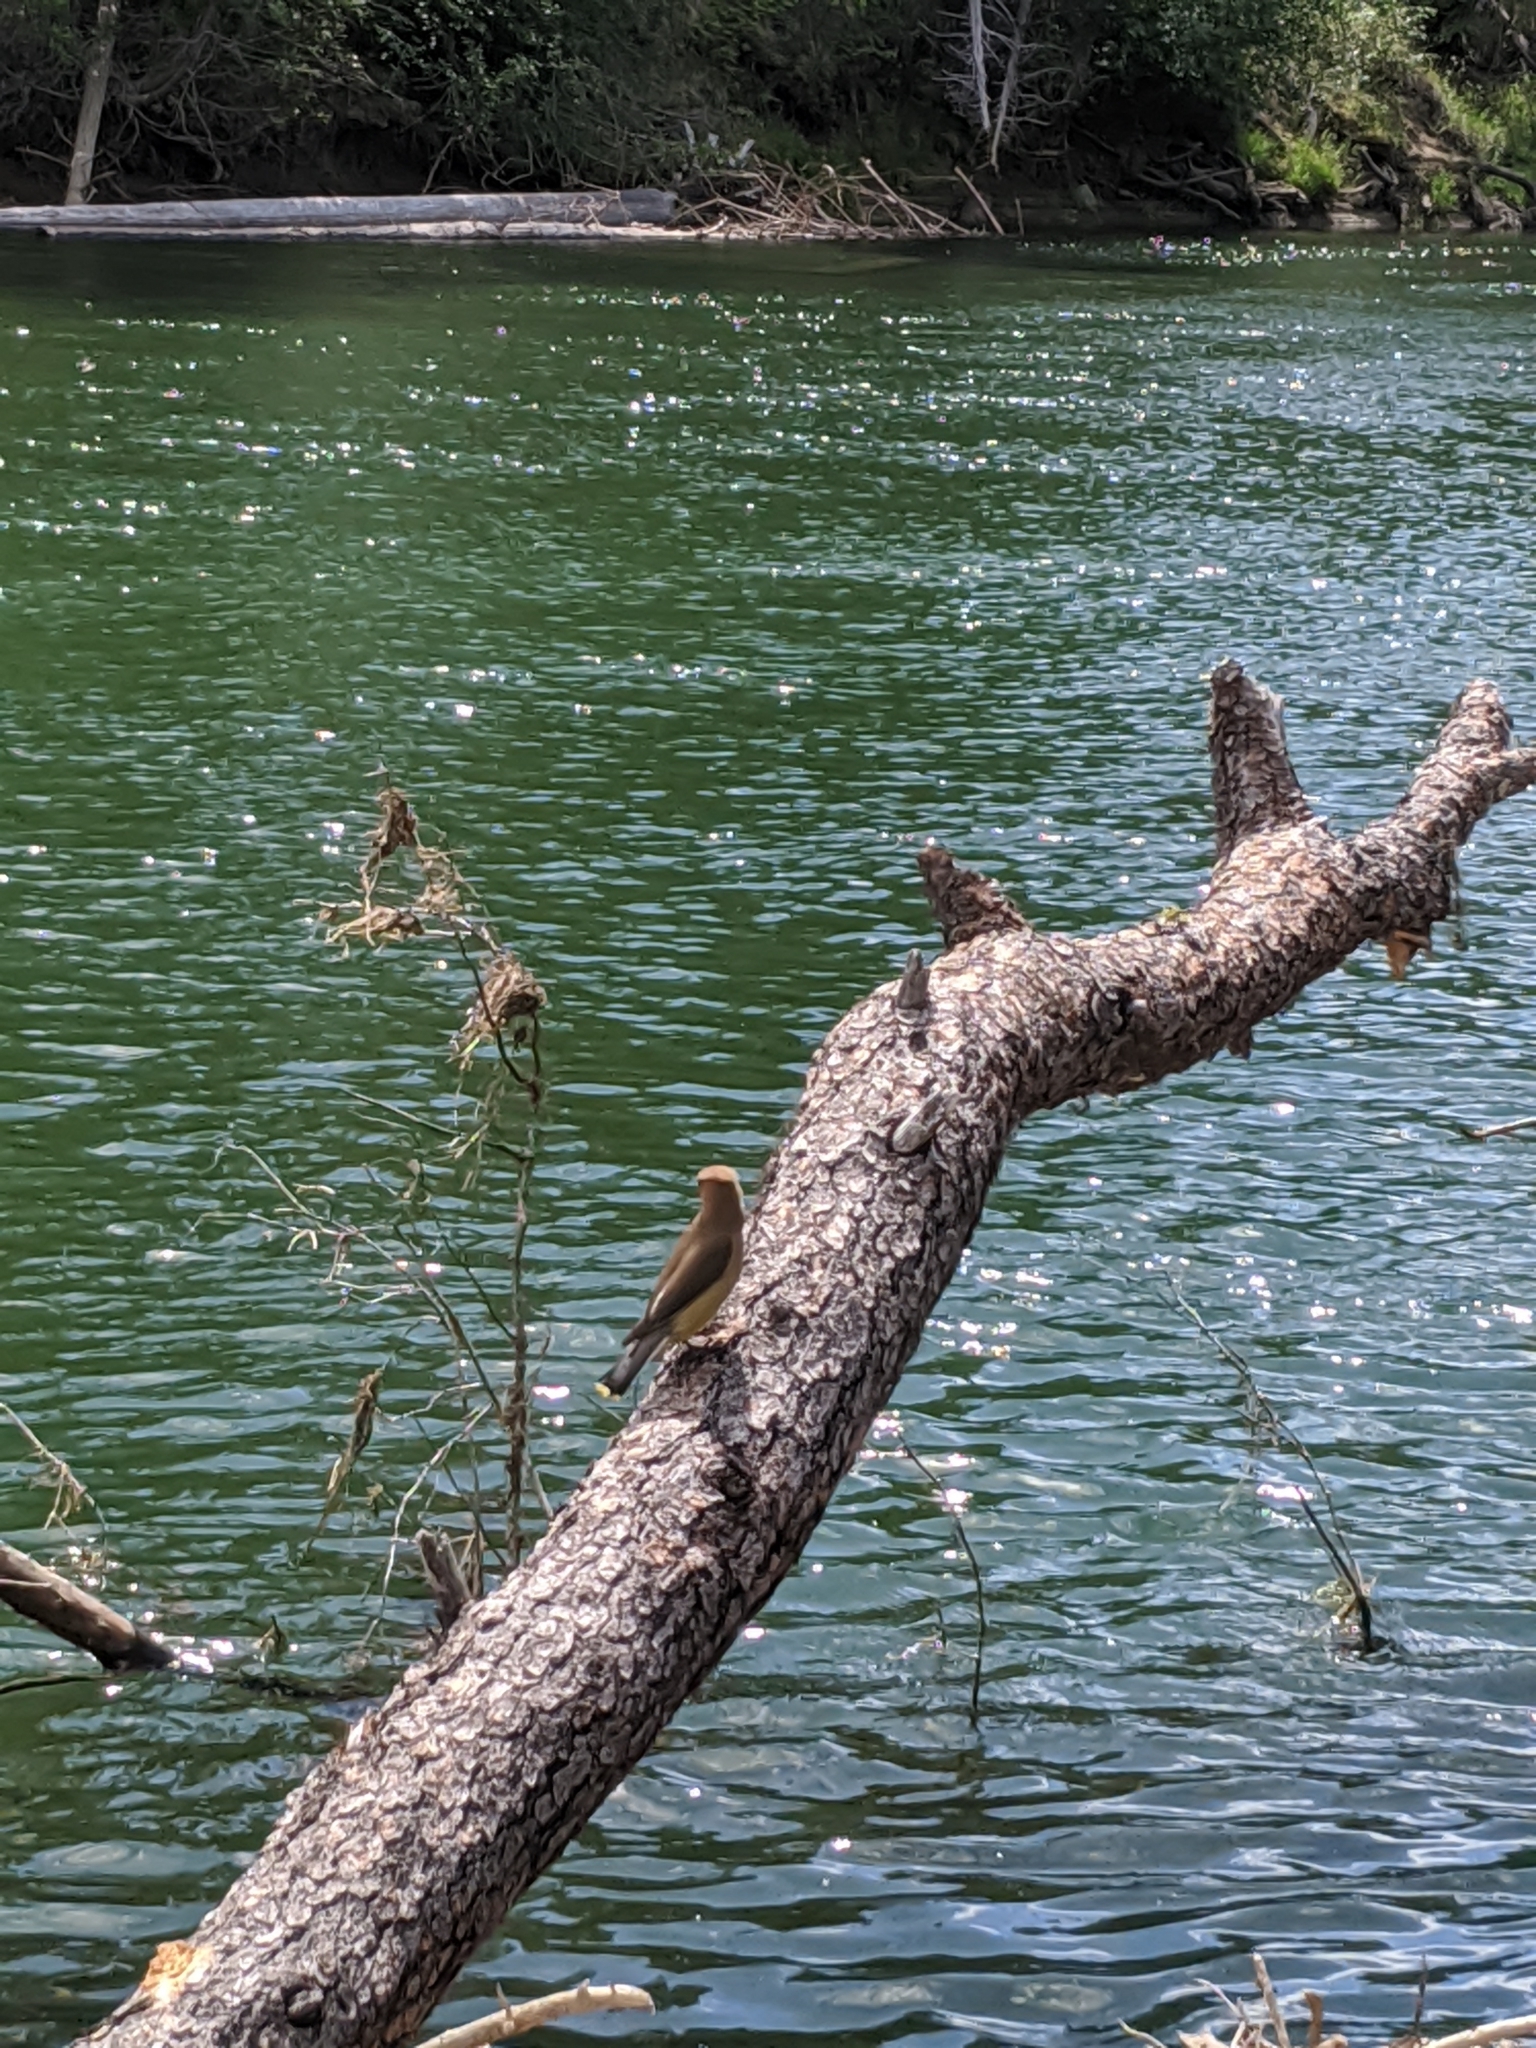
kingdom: Animalia
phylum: Chordata
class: Aves
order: Passeriformes
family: Bombycillidae
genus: Bombycilla
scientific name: Bombycilla cedrorum
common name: Cedar waxwing
